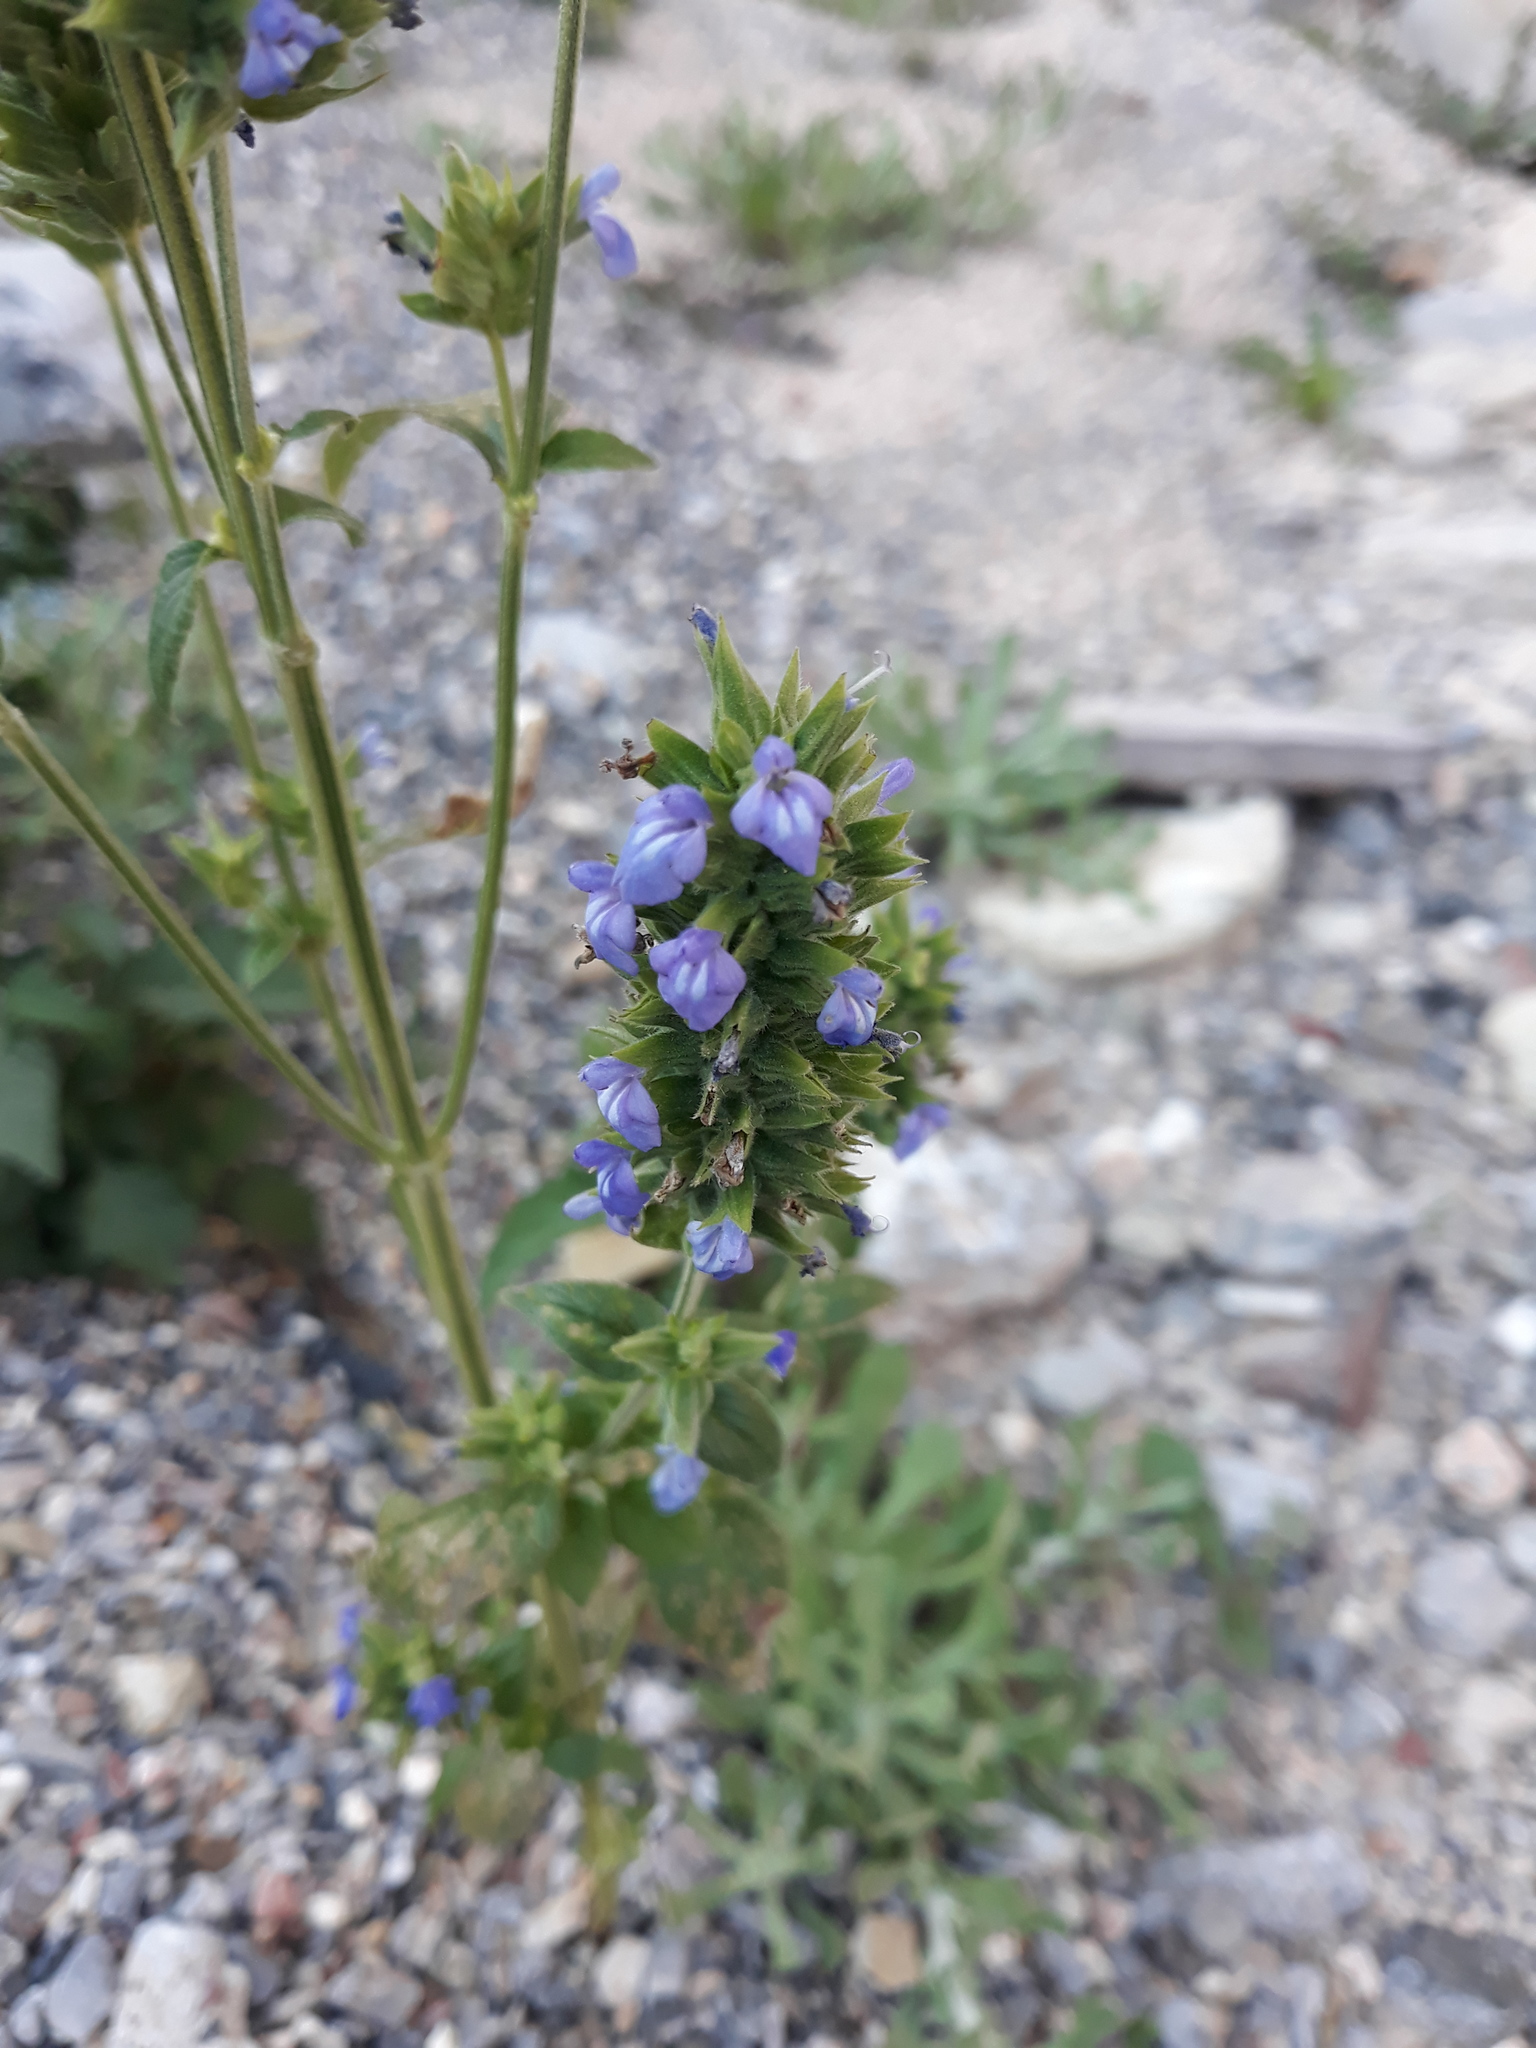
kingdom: Plantae
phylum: Tracheophyta
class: Magnoliopsida
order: Lamiales
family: Lamiaceae
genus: Salvia
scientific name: Salvia hispanica
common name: Chia
